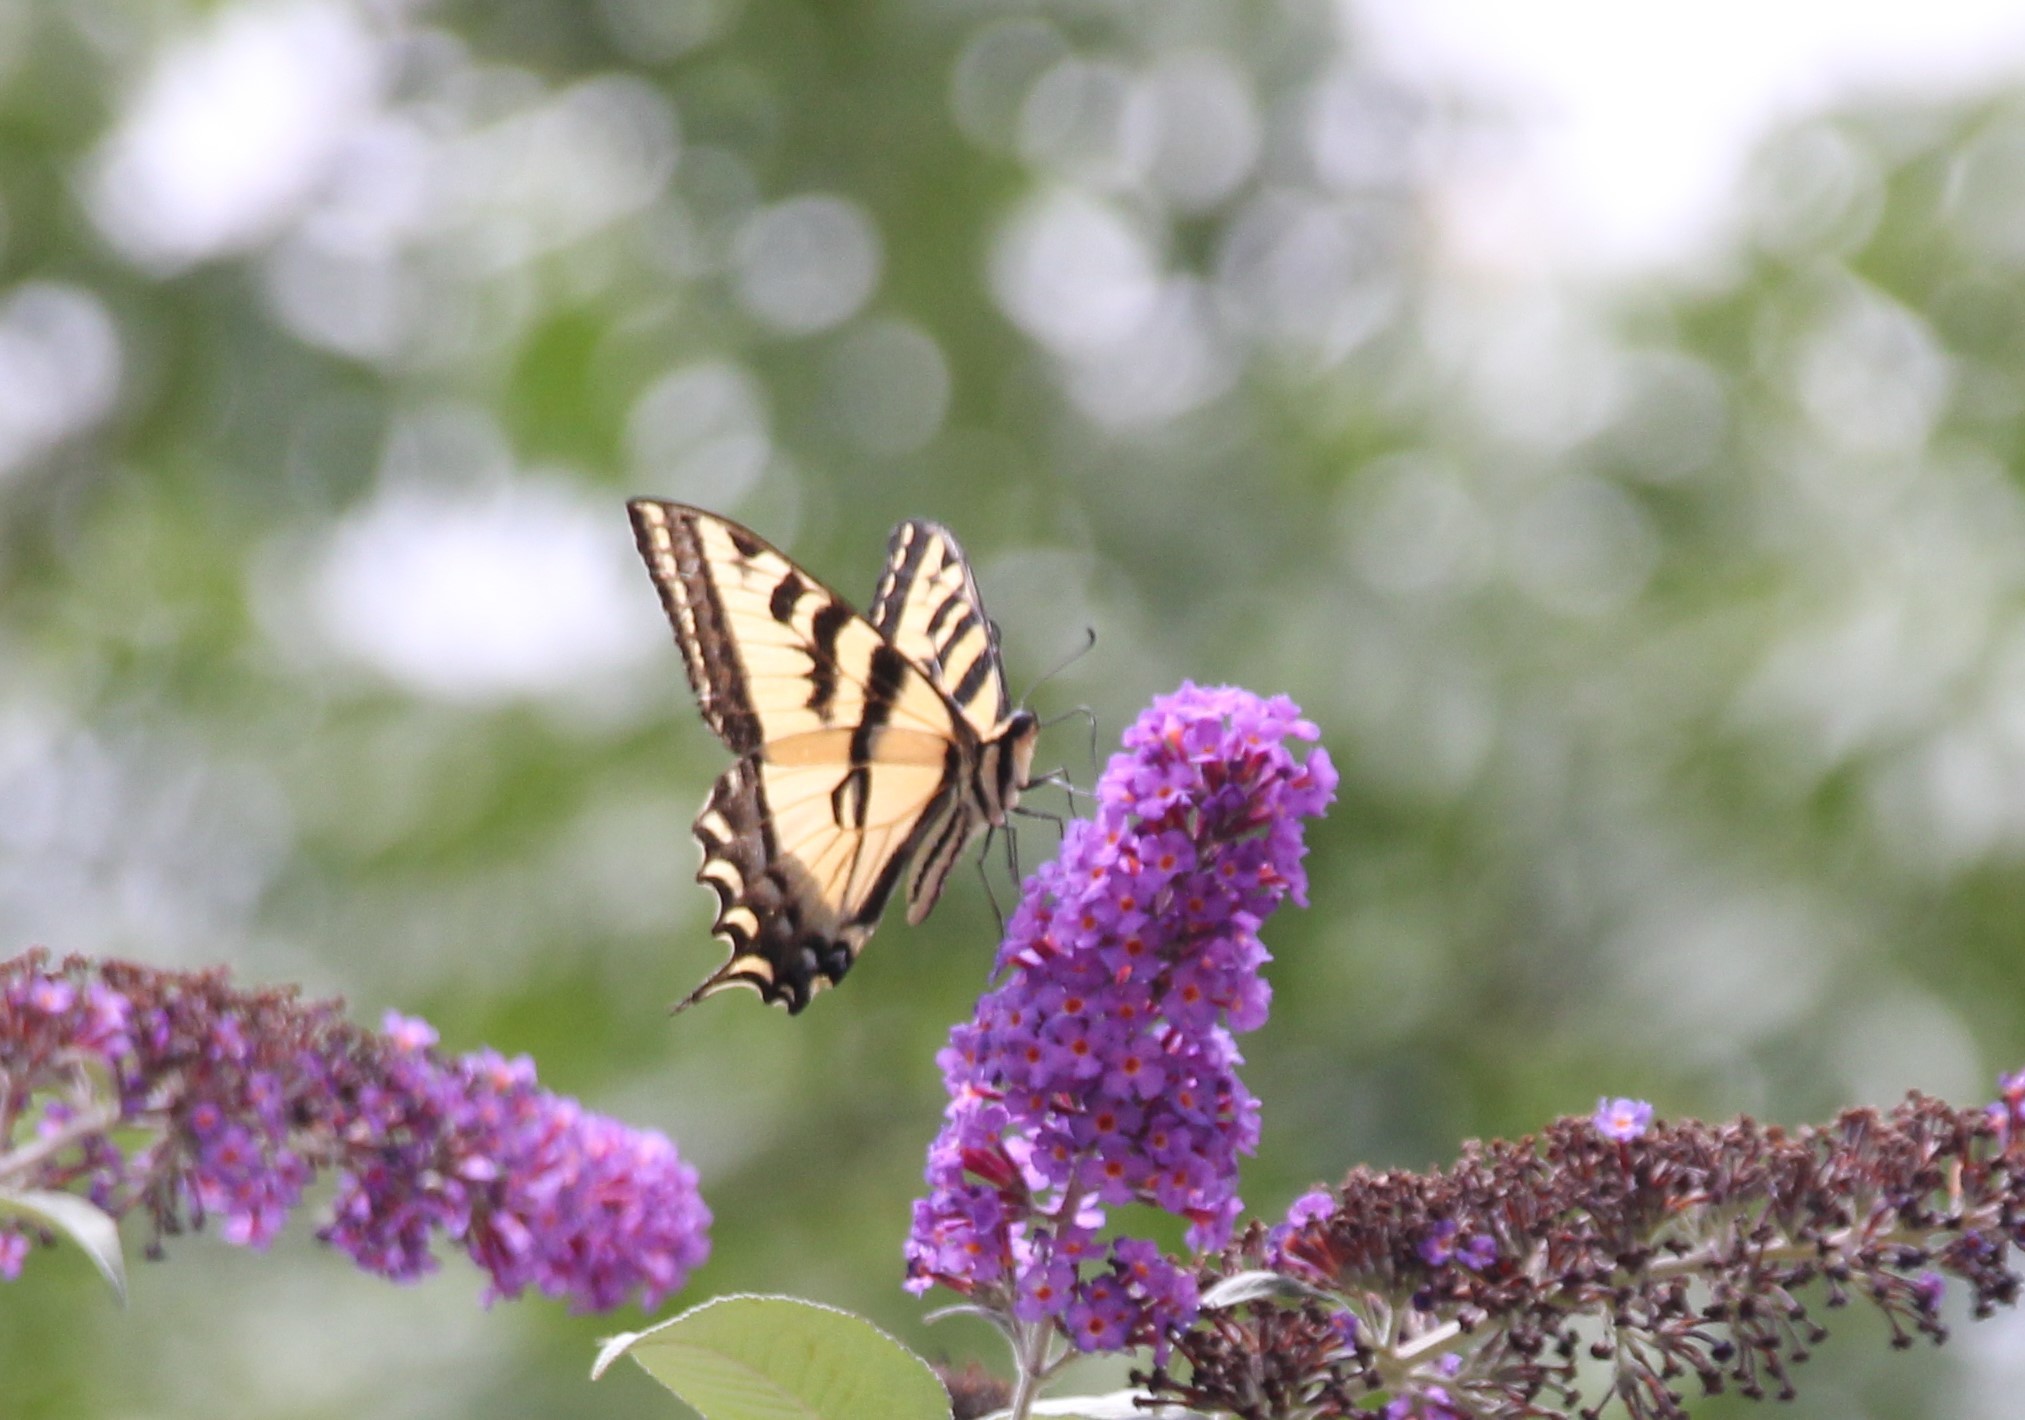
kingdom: Animalia
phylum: Arthropoda
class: Insecta
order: Lepidoptera
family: Papilionidae
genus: Papilio
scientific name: Papilio rutulus
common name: Western tiger swallowtail
